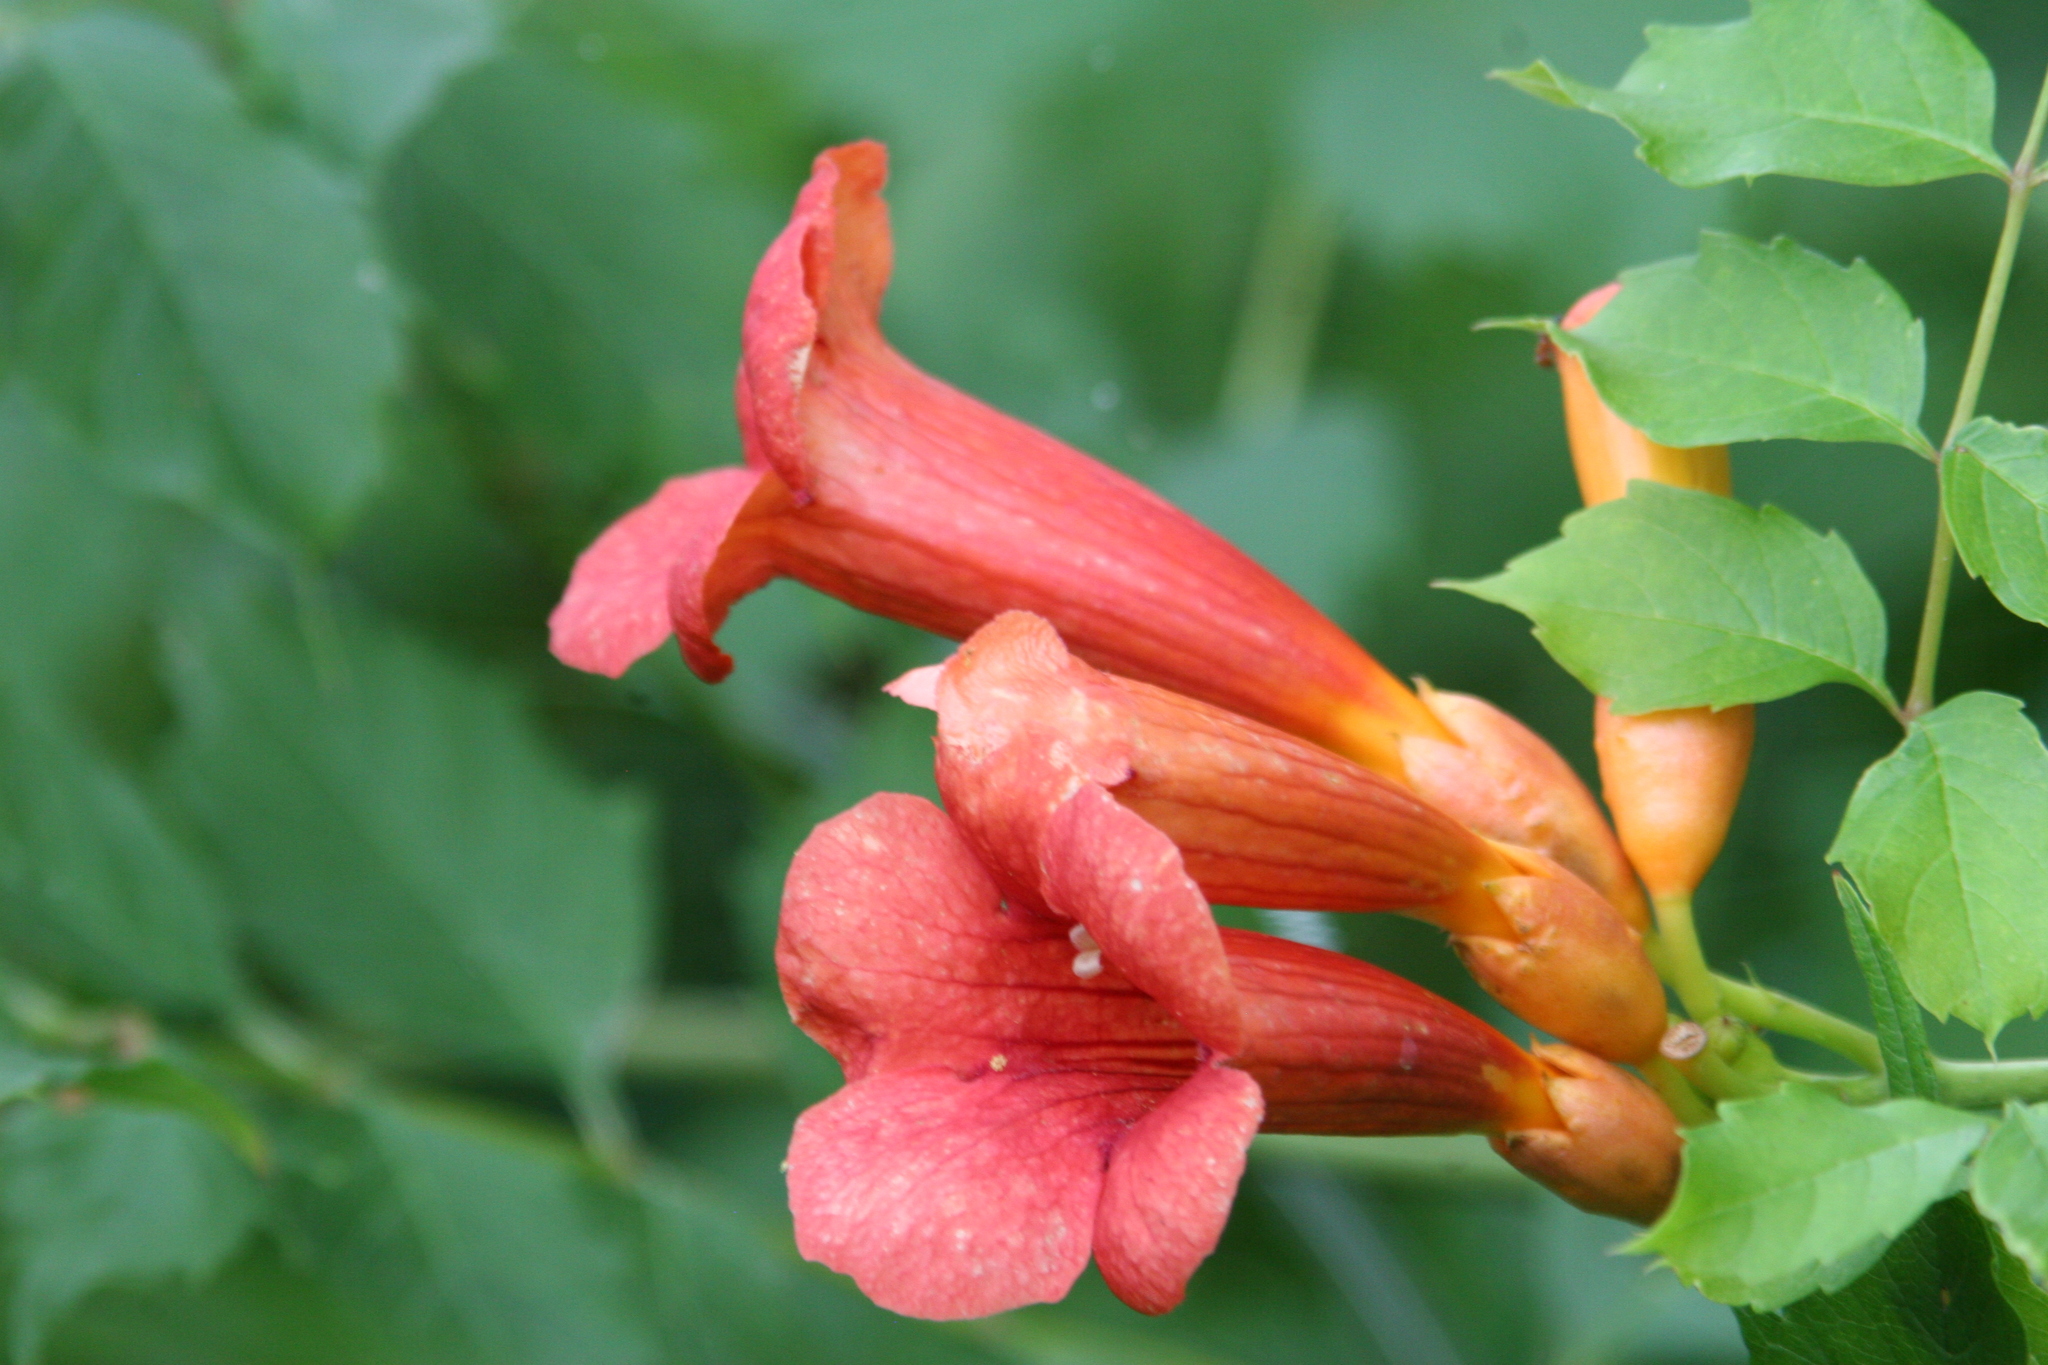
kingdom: Plantae
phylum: Tracheophyta
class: Magnoliopsida
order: Lamiales
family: Bignoniaceae
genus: Campsis
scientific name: Campsis radicans
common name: Trumpet-creeper
